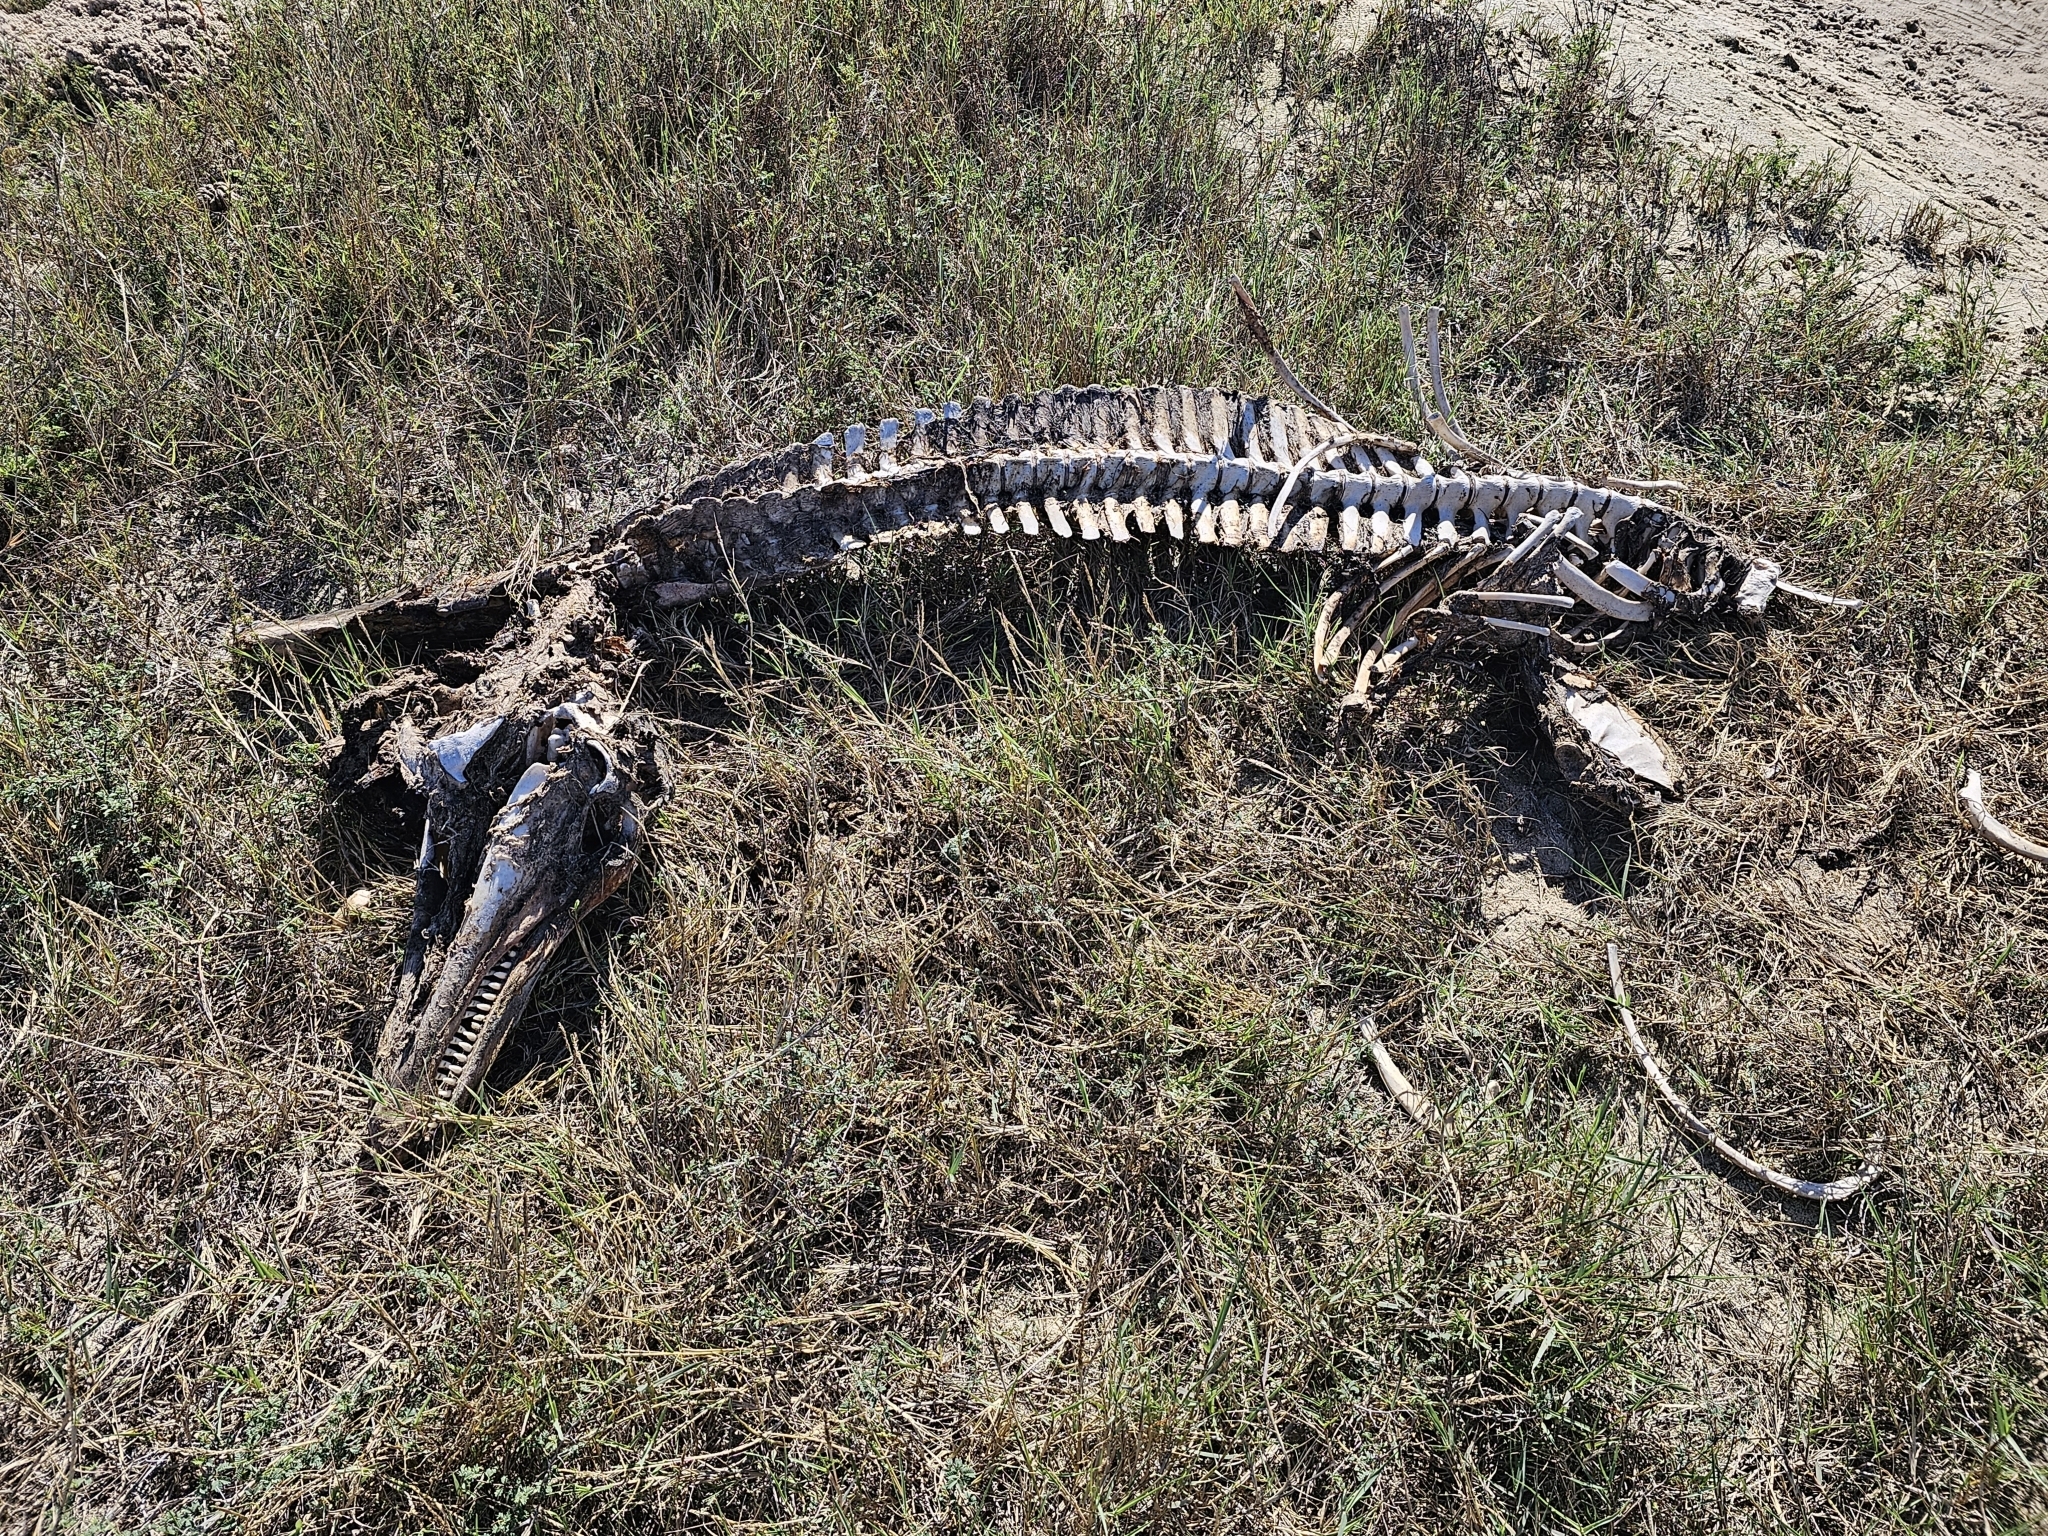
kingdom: Animalia
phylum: Chordata
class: Mammalia
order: Cetacea
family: Delphinidae
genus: Tursiops
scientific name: Tursiops truncatus
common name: Bottlenose dolphin
